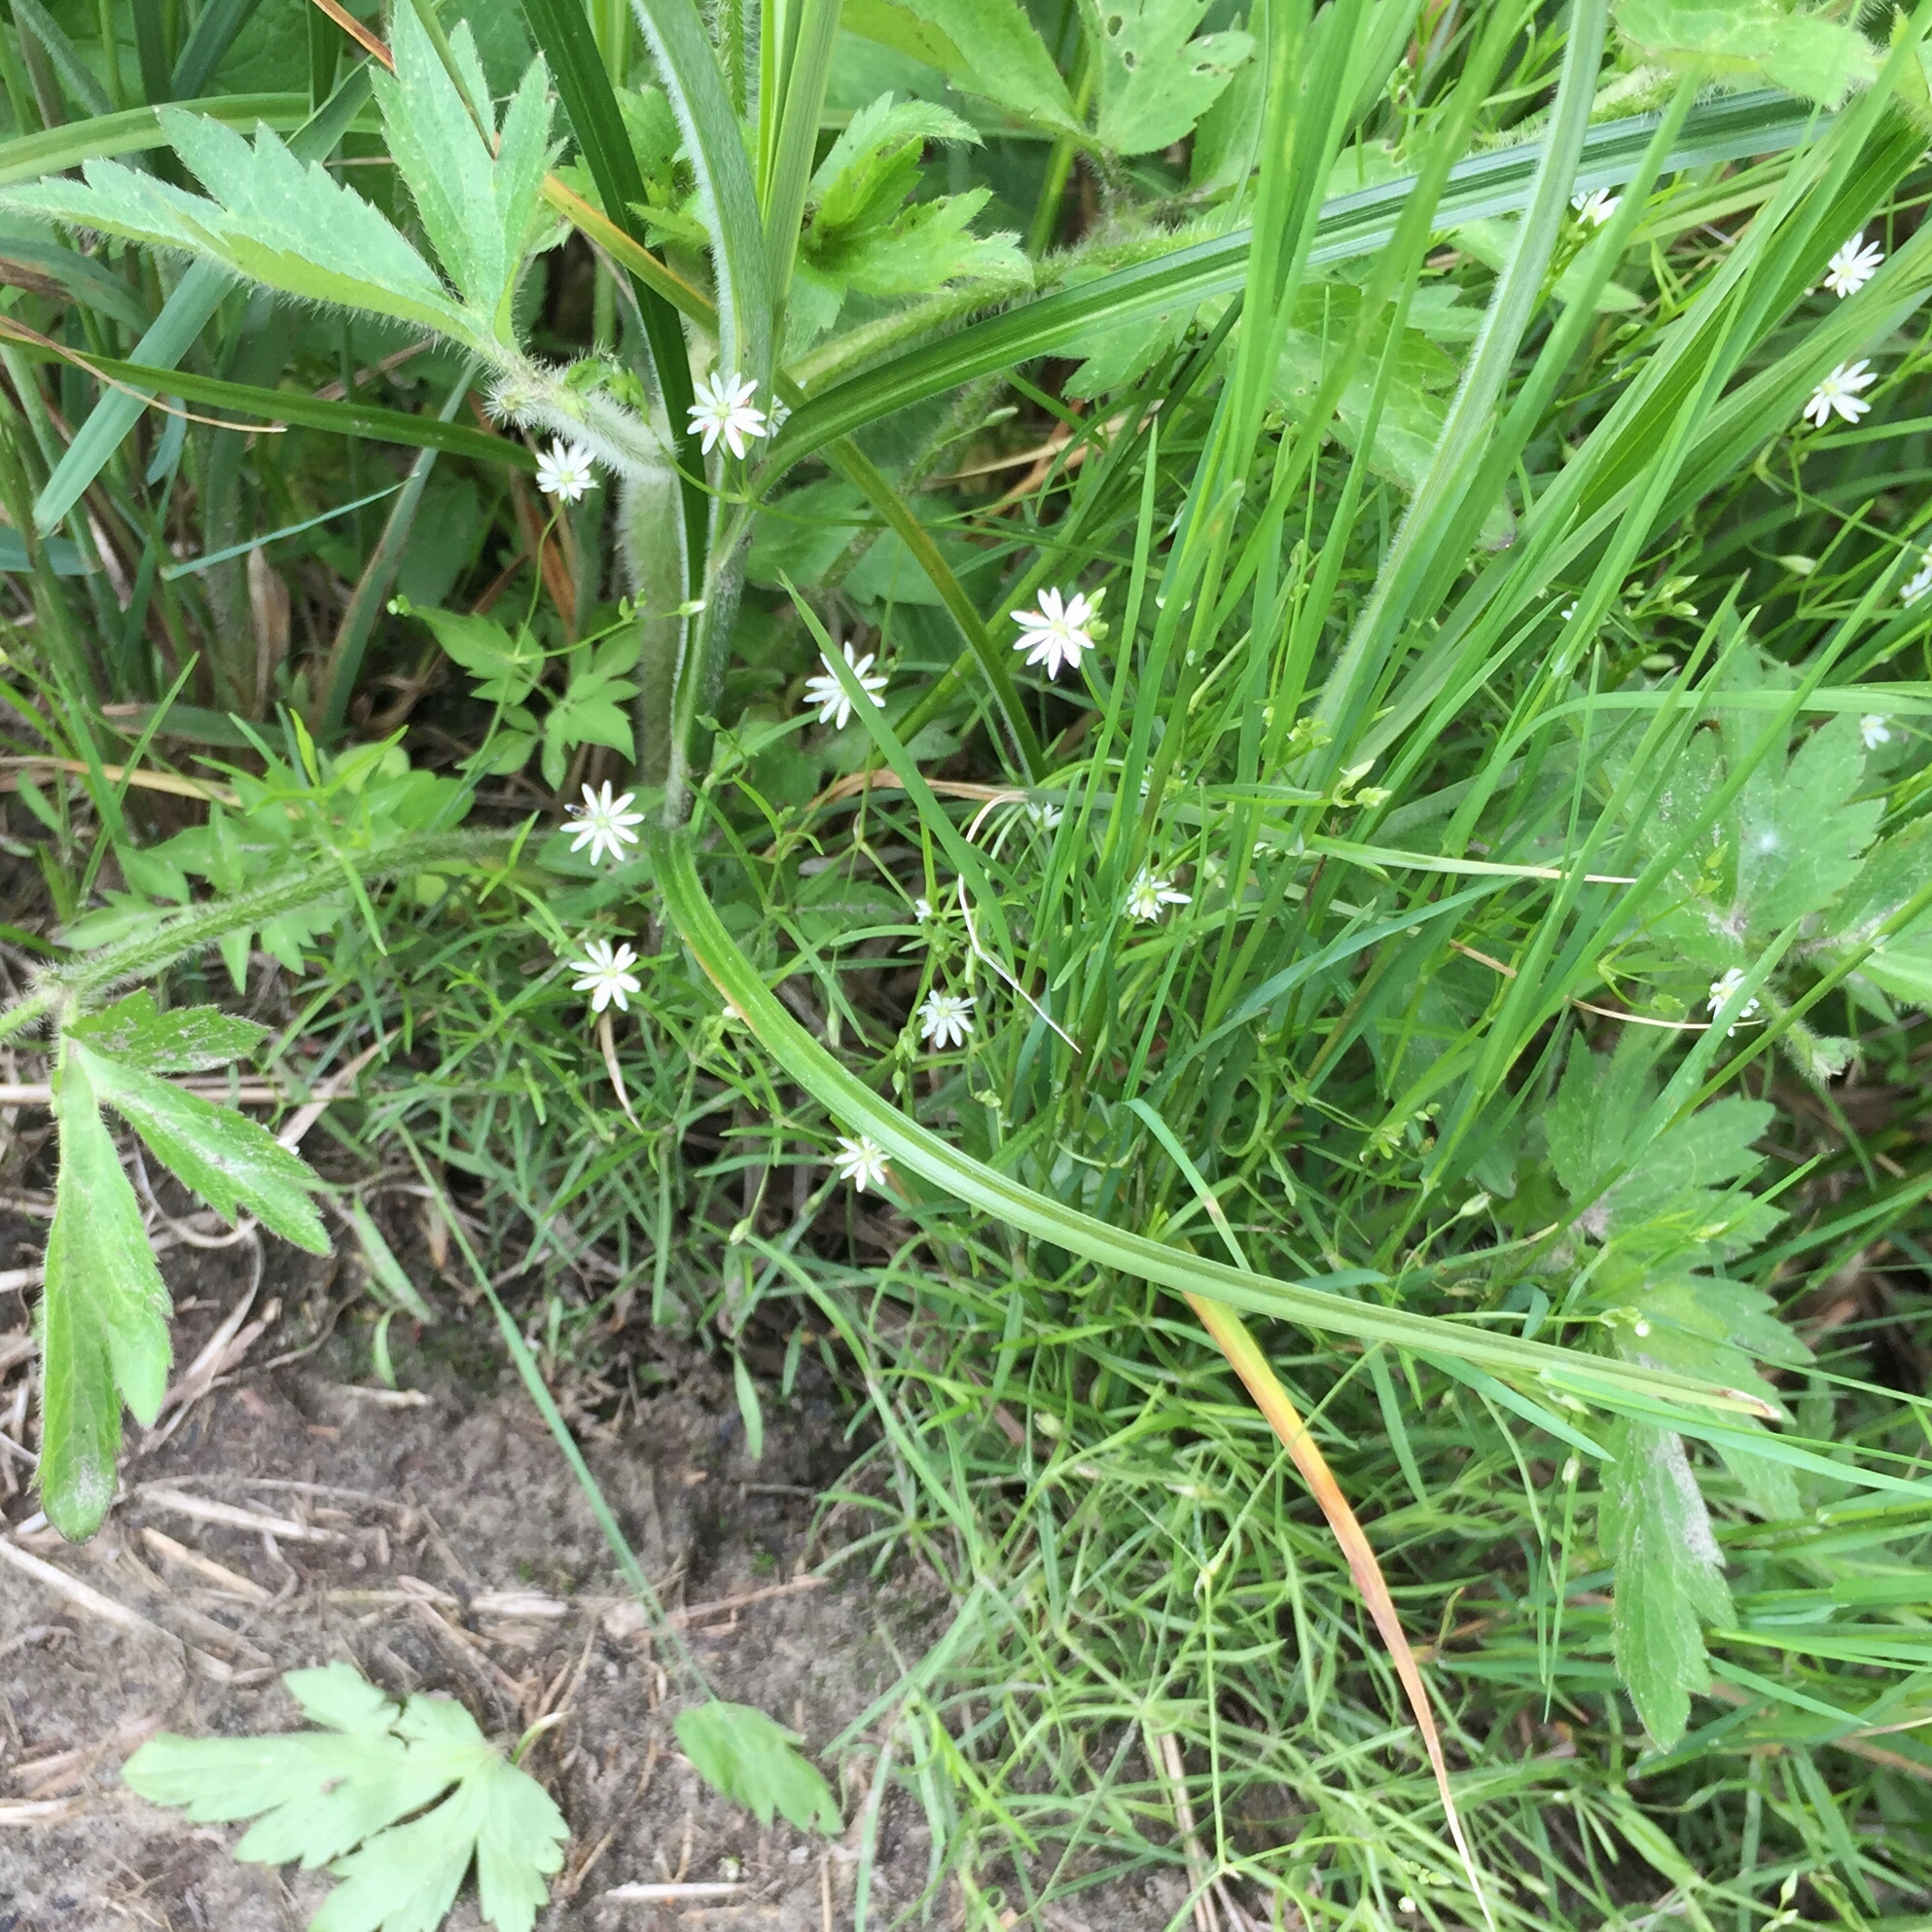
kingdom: Plantae
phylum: Tracheophyta
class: Magnoliopsida
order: Caryophyllales
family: Caryophyllaceae
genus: Stellaria
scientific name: Stellaria longifolia
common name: Long-leaved chickweed
